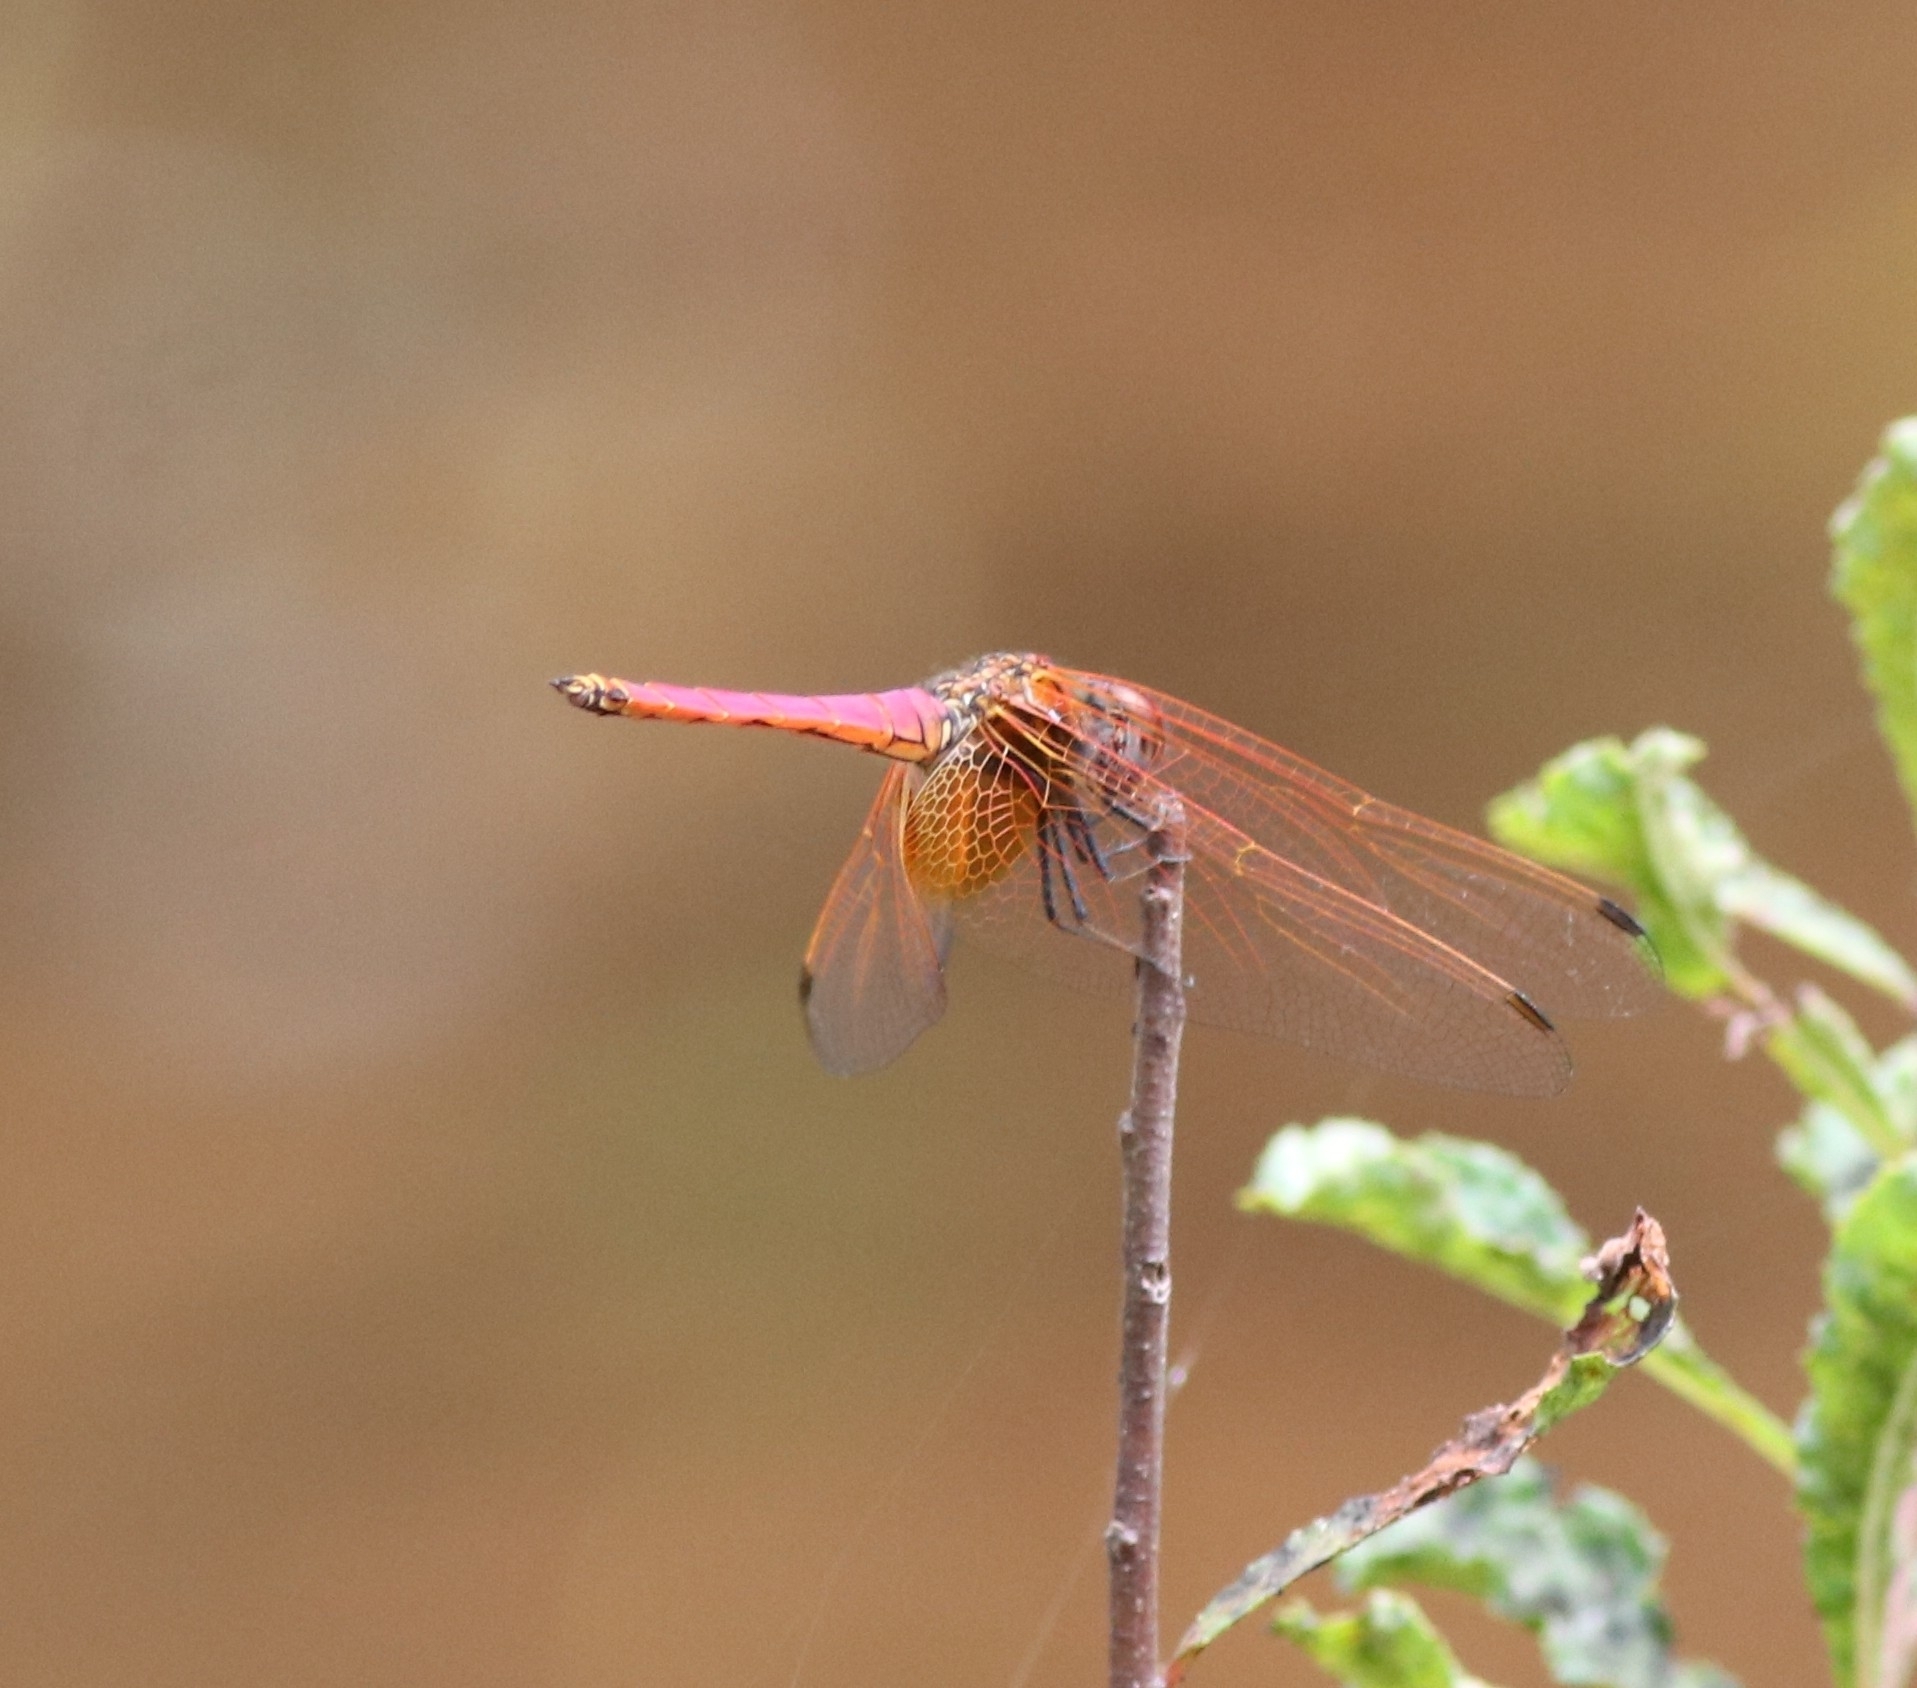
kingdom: Animalia
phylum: Arthropoda
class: Insecta
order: Odonata
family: Libellulidae
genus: Trithemis
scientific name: Trithemis aurora
